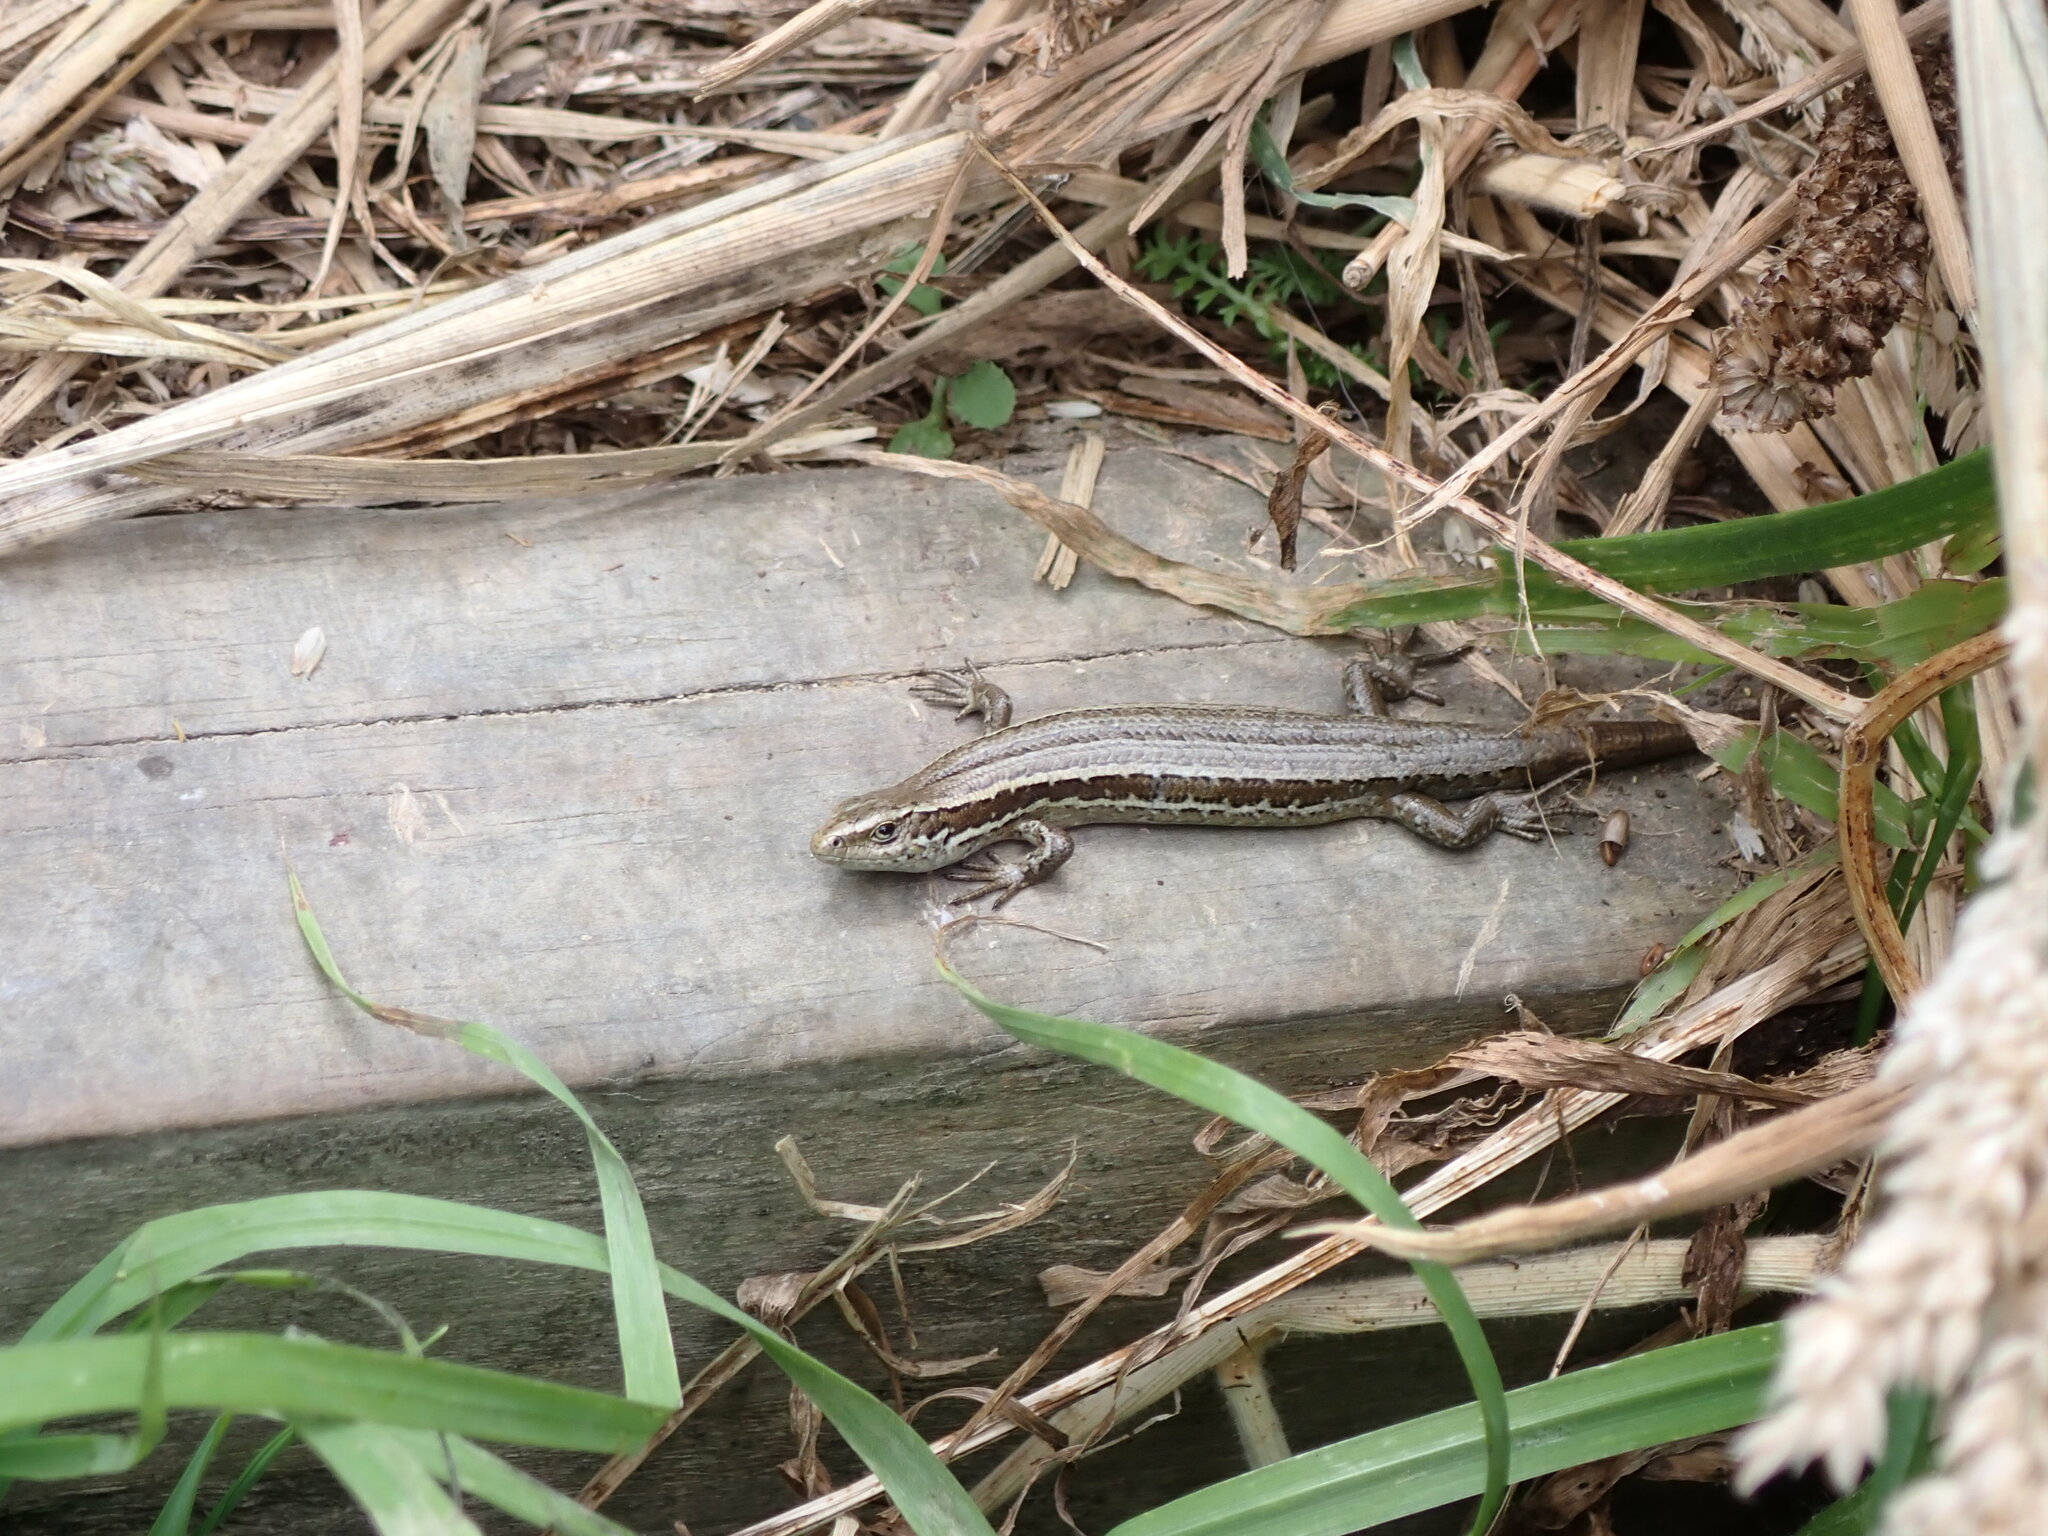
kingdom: Animalia
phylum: Chordata
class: Squamata
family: Scincidae
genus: Oligosoma
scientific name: Oligosoma polychroma
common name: Common new zealand skink
